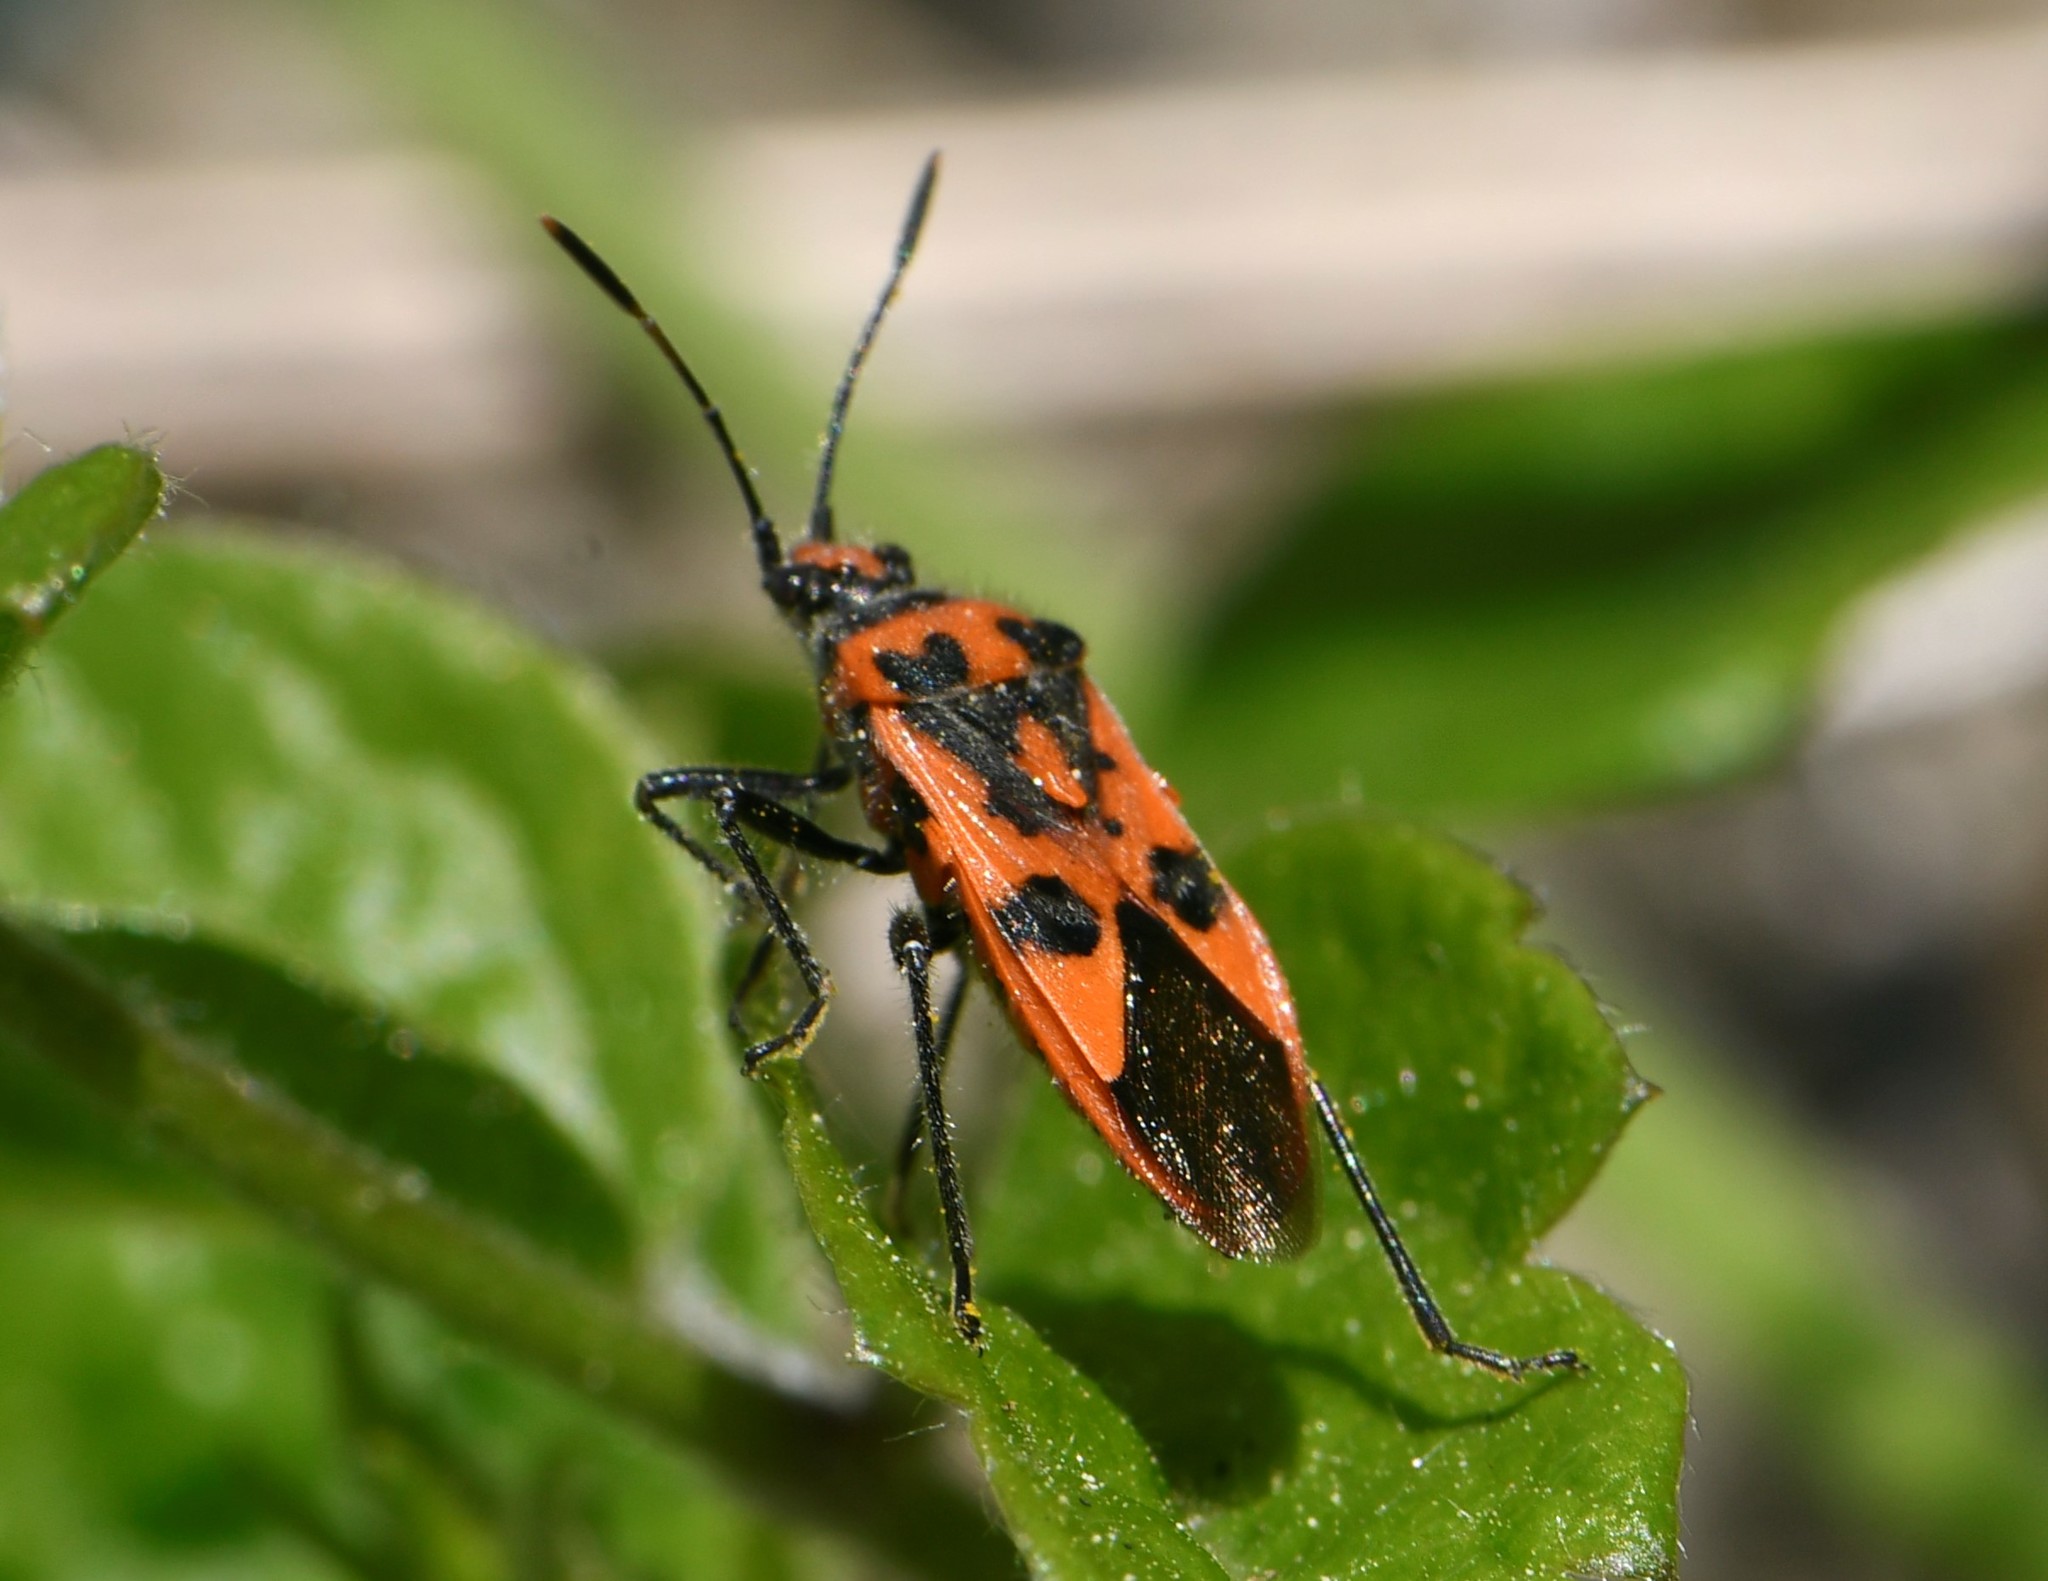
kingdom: Animalia
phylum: Arthropoda
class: Insecta
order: Hemiptera
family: Rhopalidae
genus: Corizus
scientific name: Corizus hyoscyami
